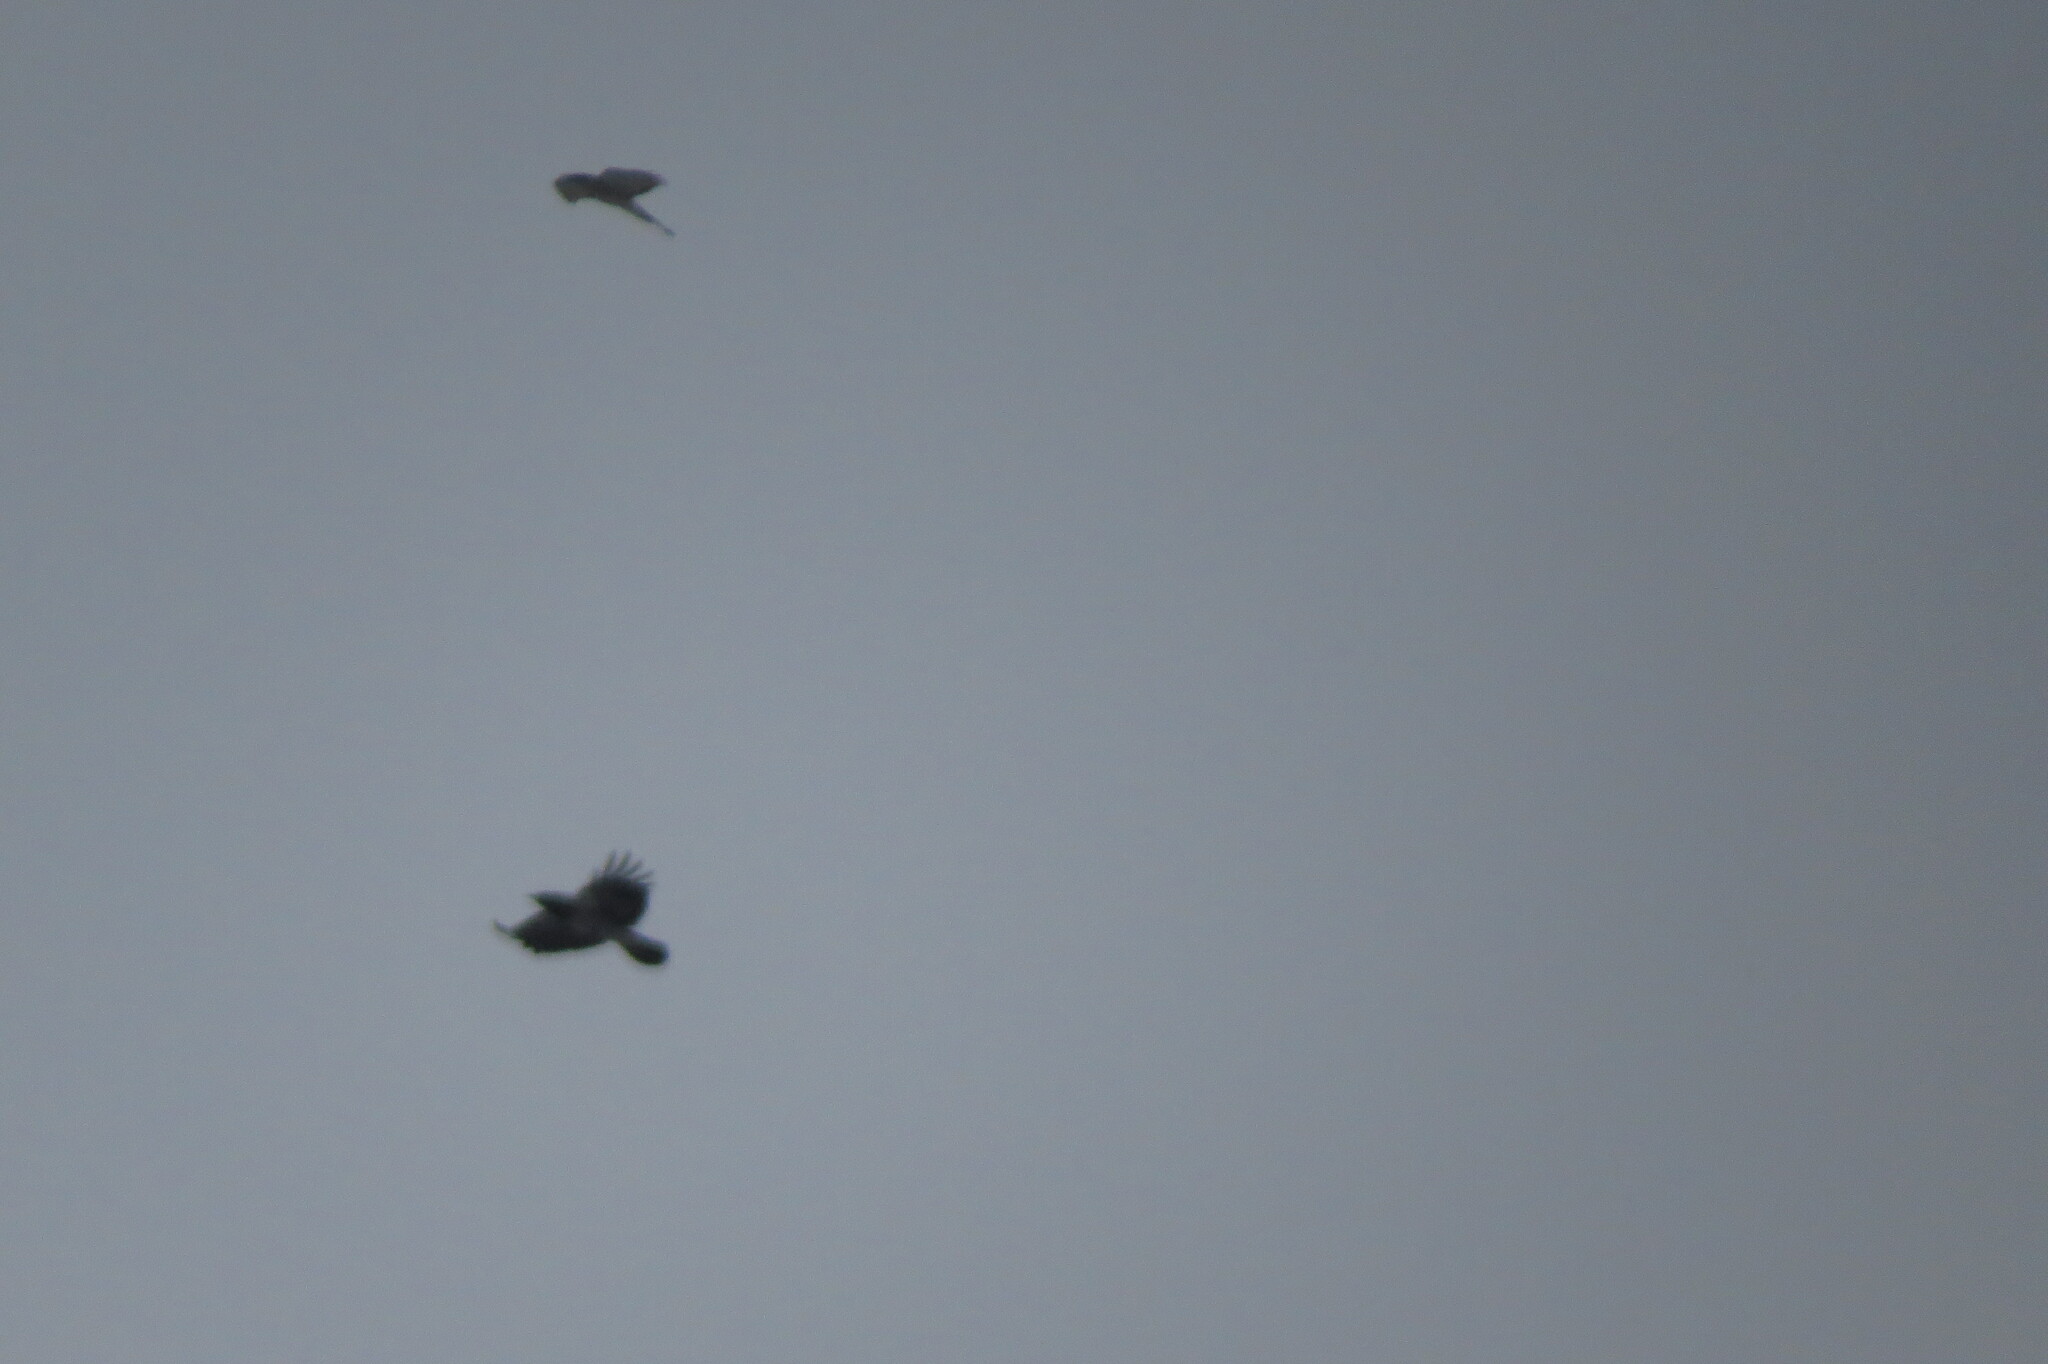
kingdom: Animalia
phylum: Chordata
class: Aves
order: Passeriformes
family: Corvidae
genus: Corvus
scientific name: Corvus cornix
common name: Hooded crow
